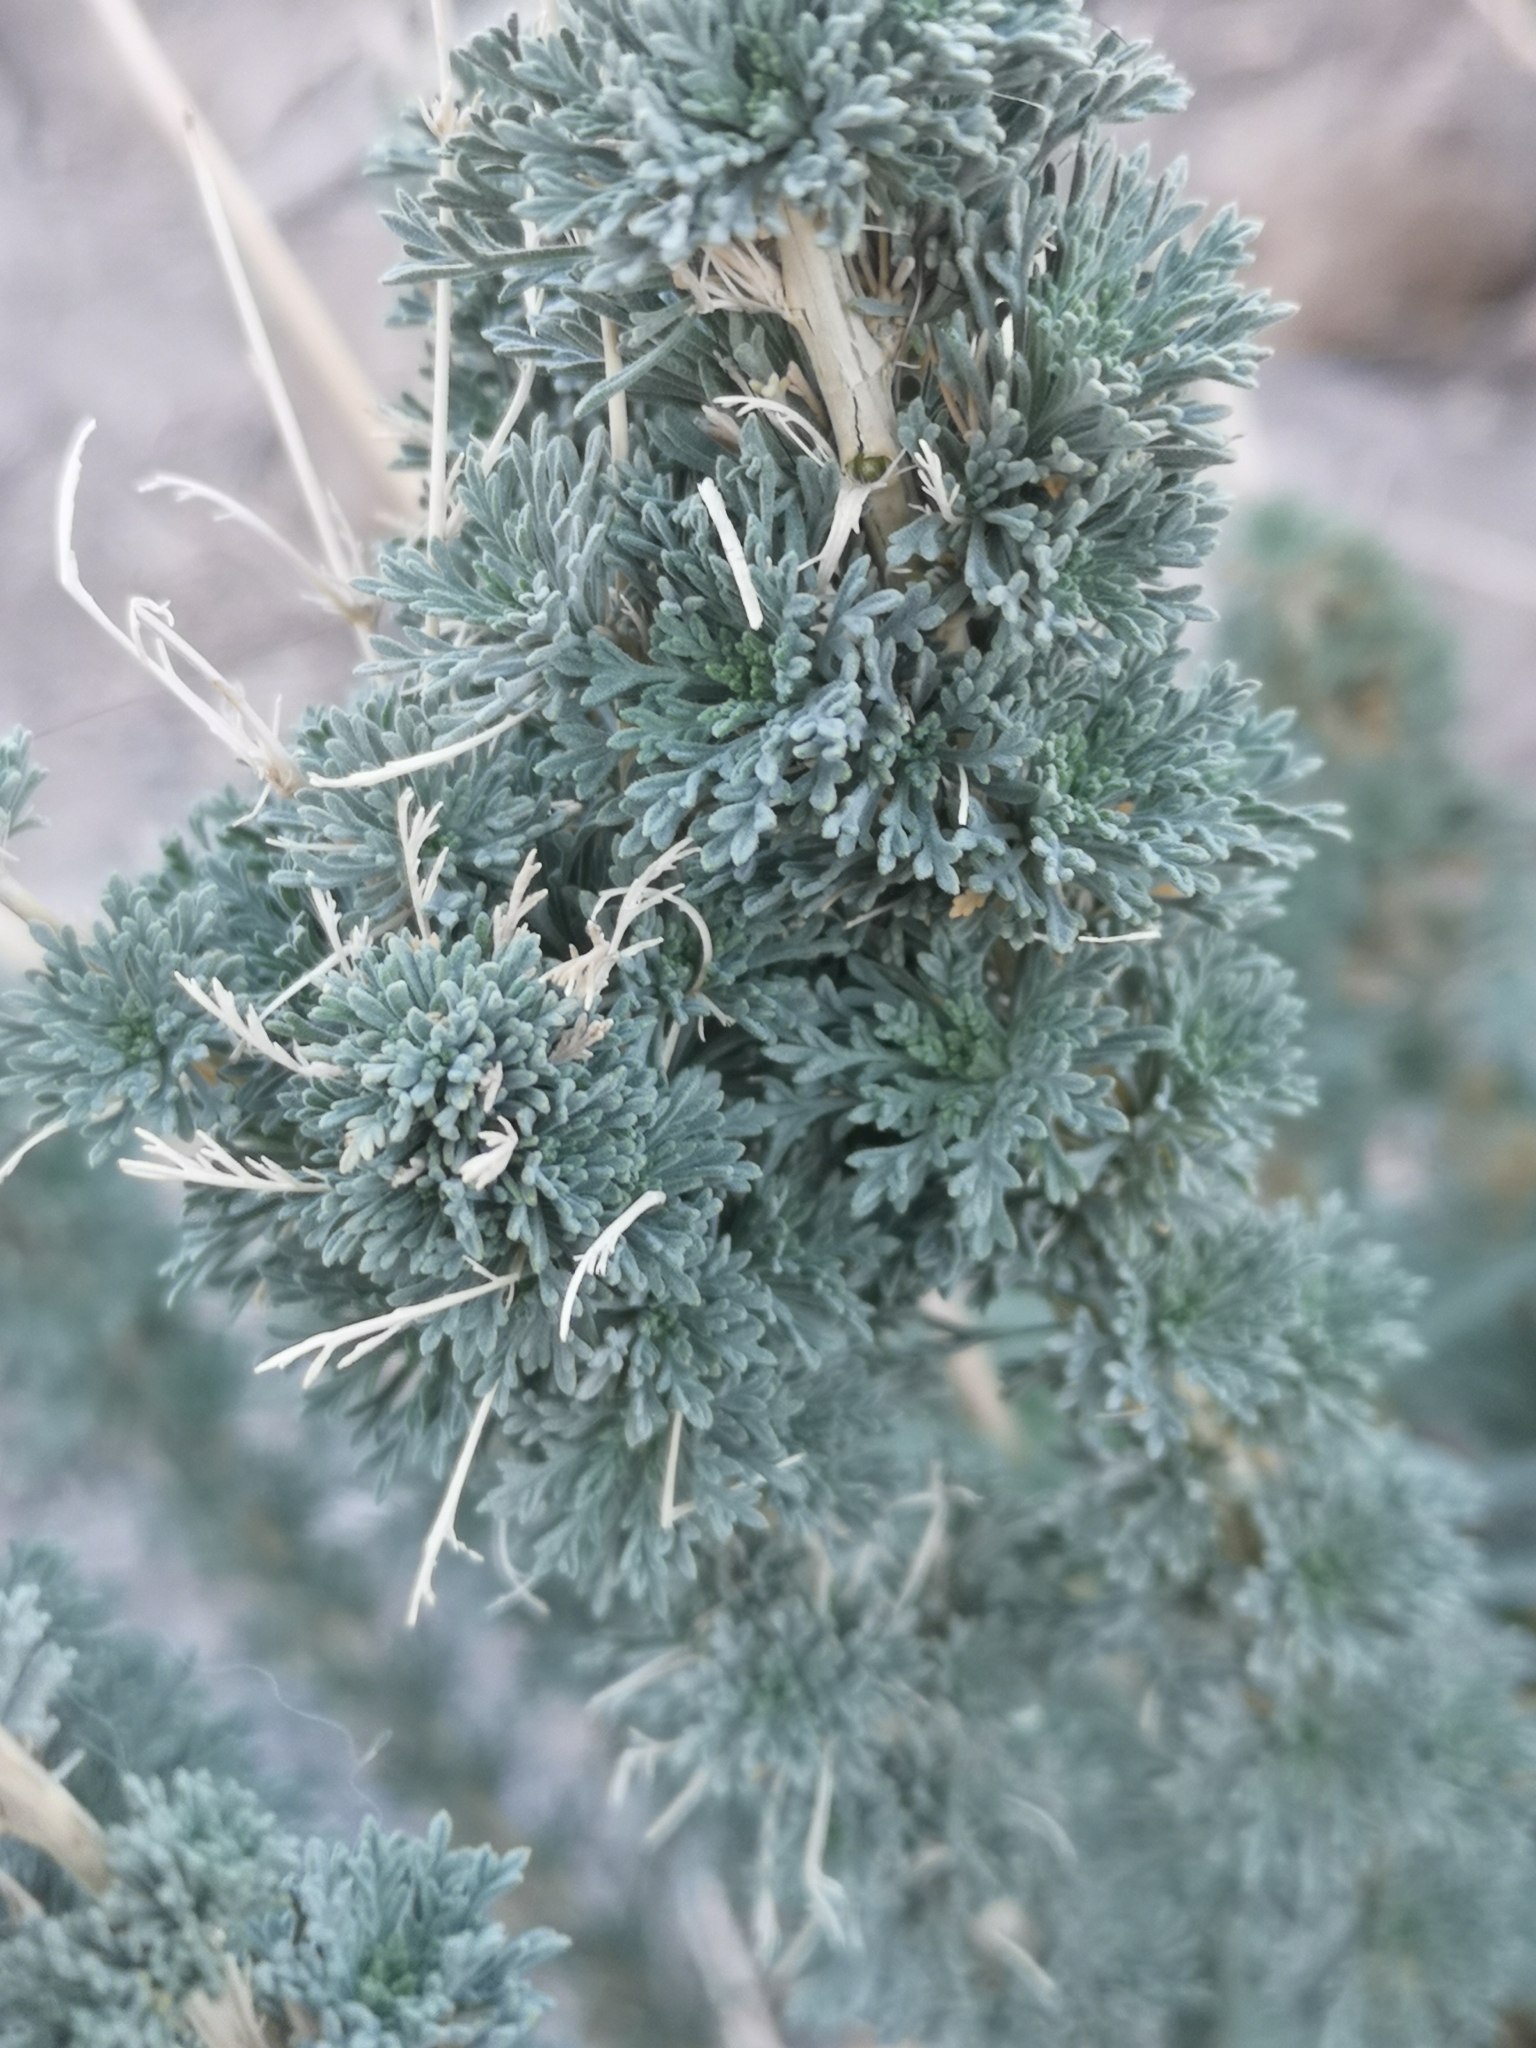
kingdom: Plantae
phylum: Tracheophyta
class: Magnoliopsida
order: Brassicales
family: Brassicaceae
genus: Descurainia
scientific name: Descurainia bourgaeana
